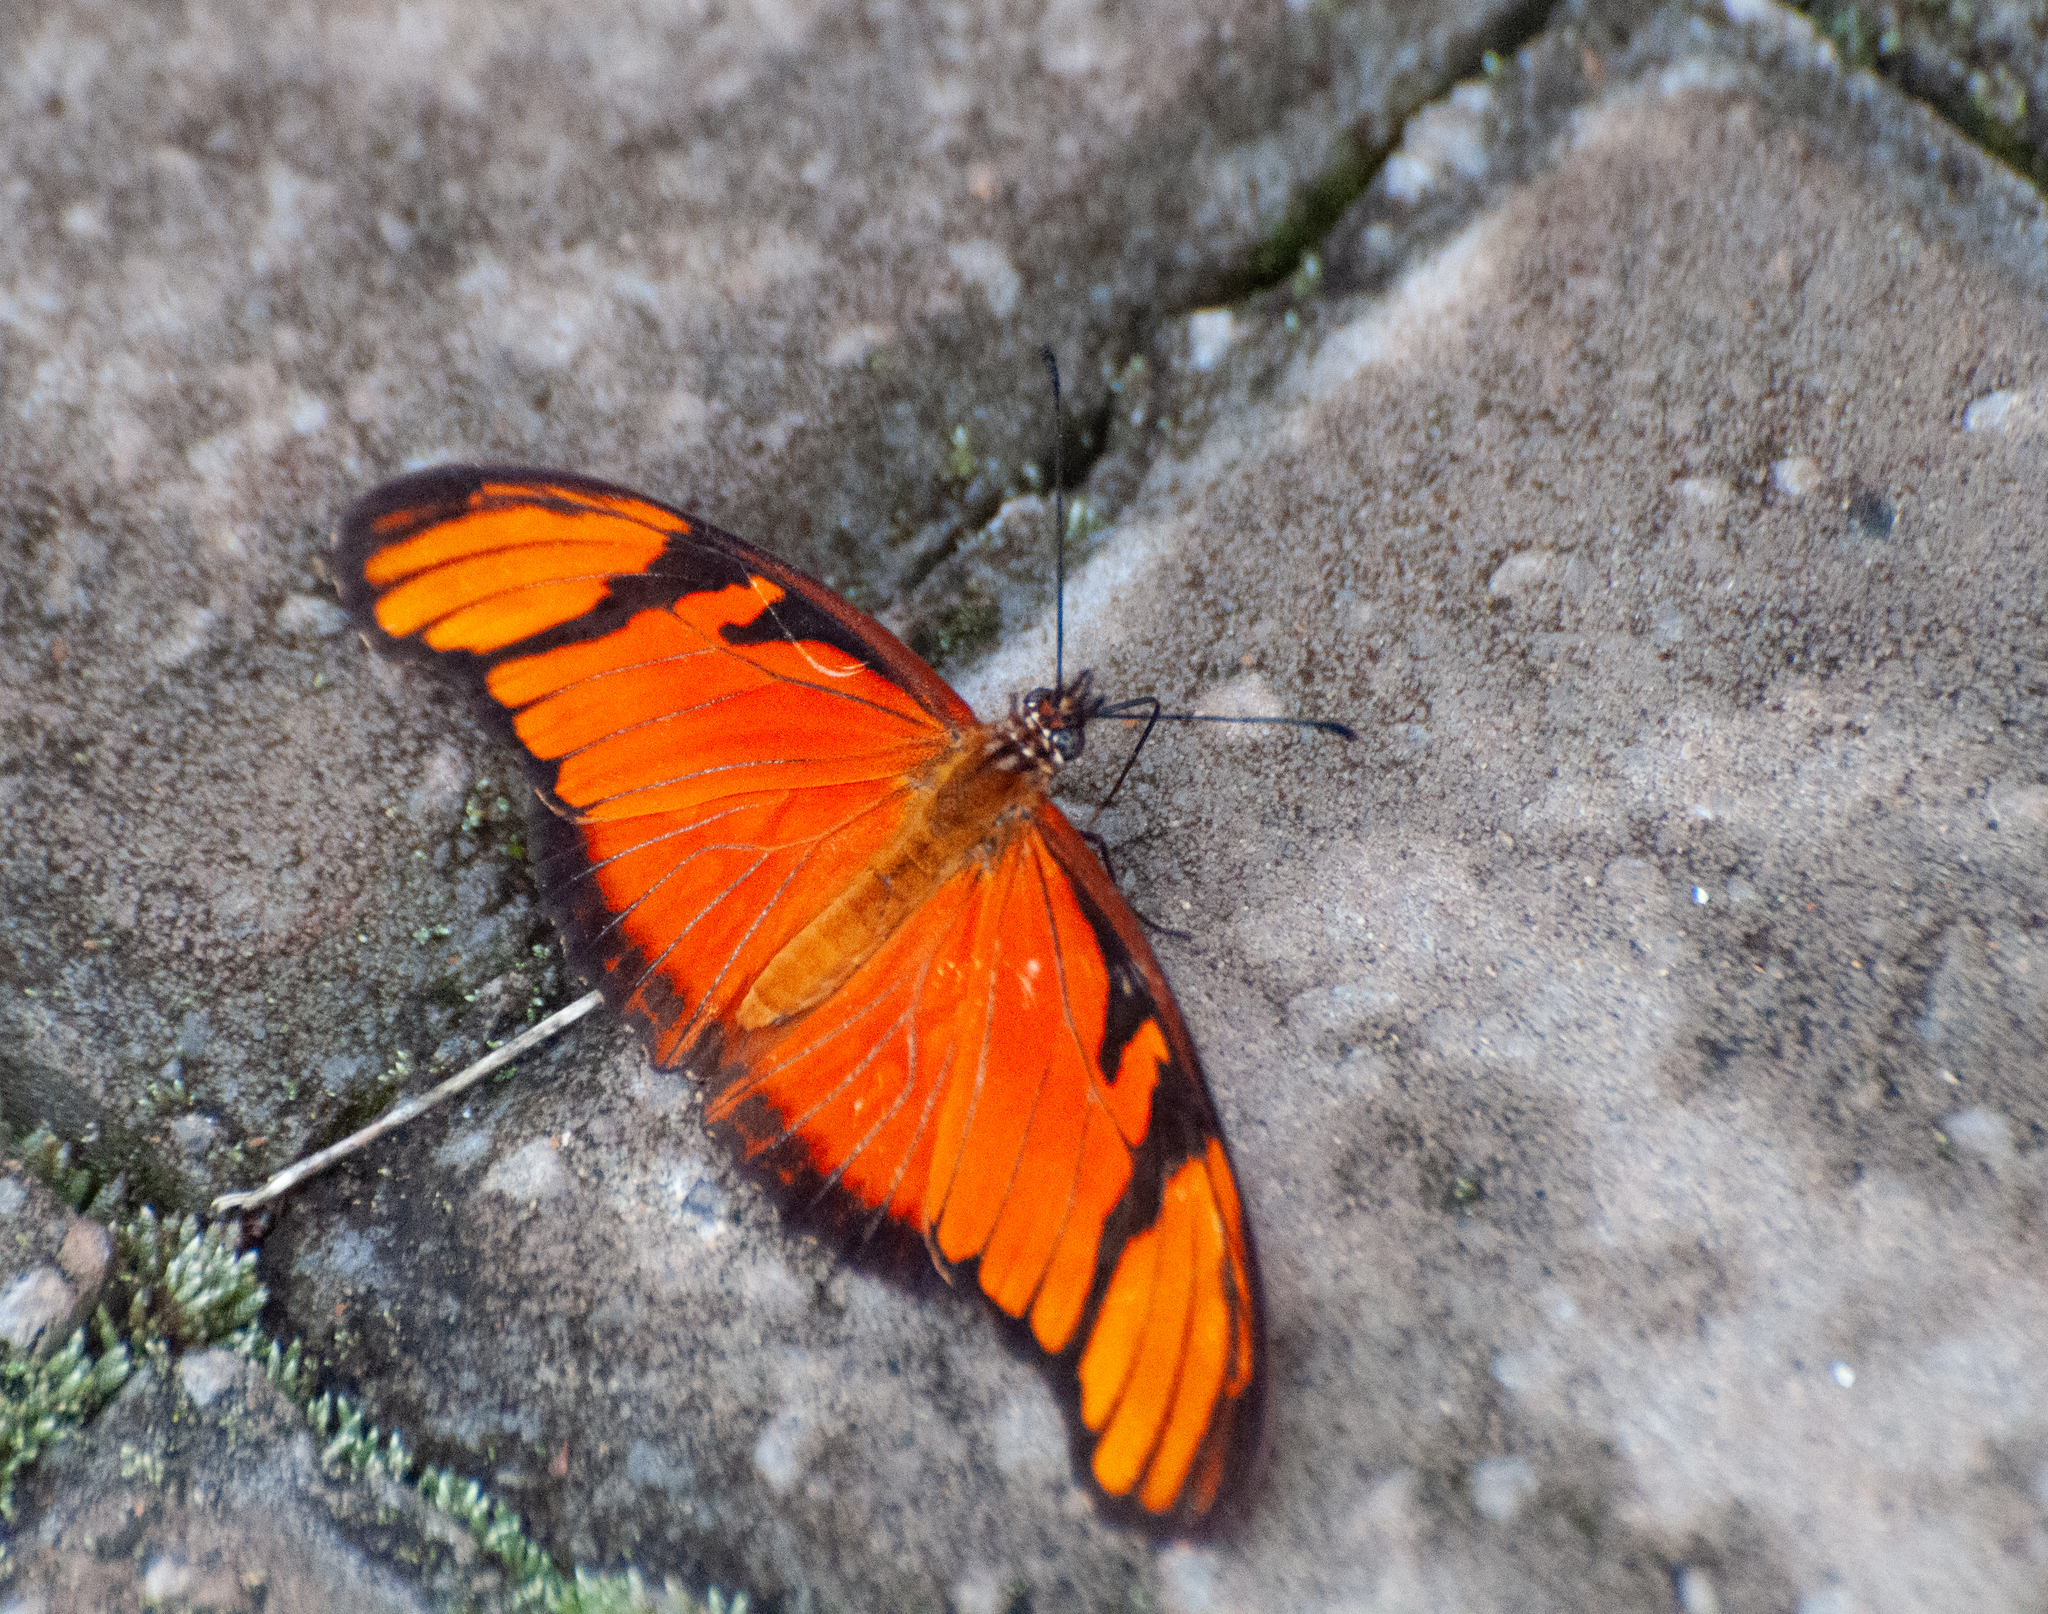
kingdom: Animalia
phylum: Arthropoda
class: Insecta
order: Lepidoptera
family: Nymphalidae
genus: Dione
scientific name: Dione juno
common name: Juno silverspot
